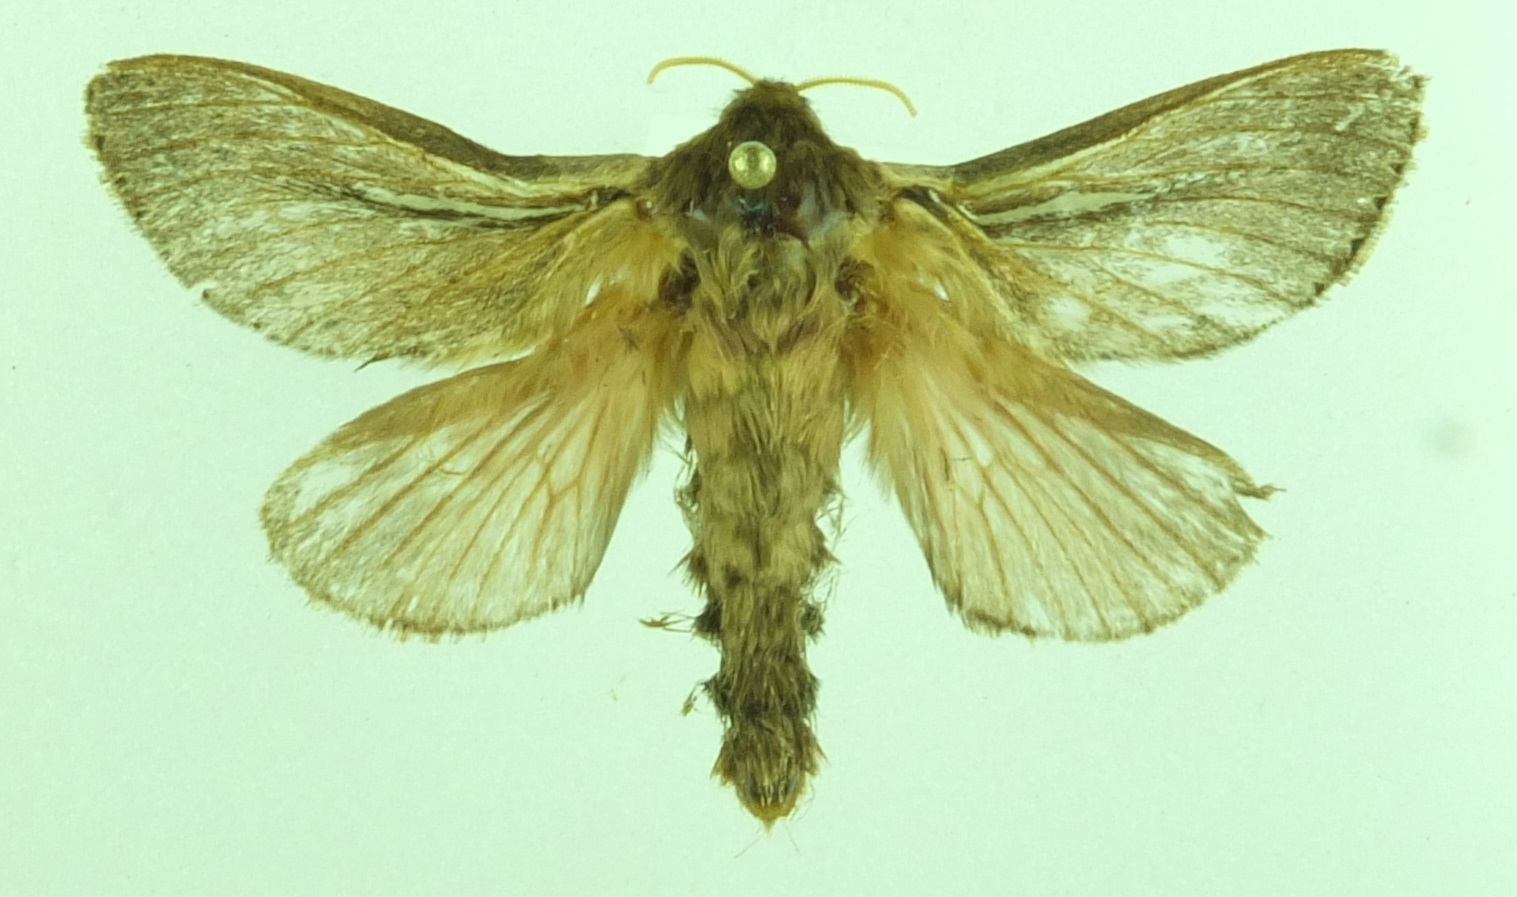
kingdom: Animalia
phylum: Arthropoda
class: Insecta
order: Lepidoptera
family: Hepialidae
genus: Wiseana
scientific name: Wiseana umbraculatus
